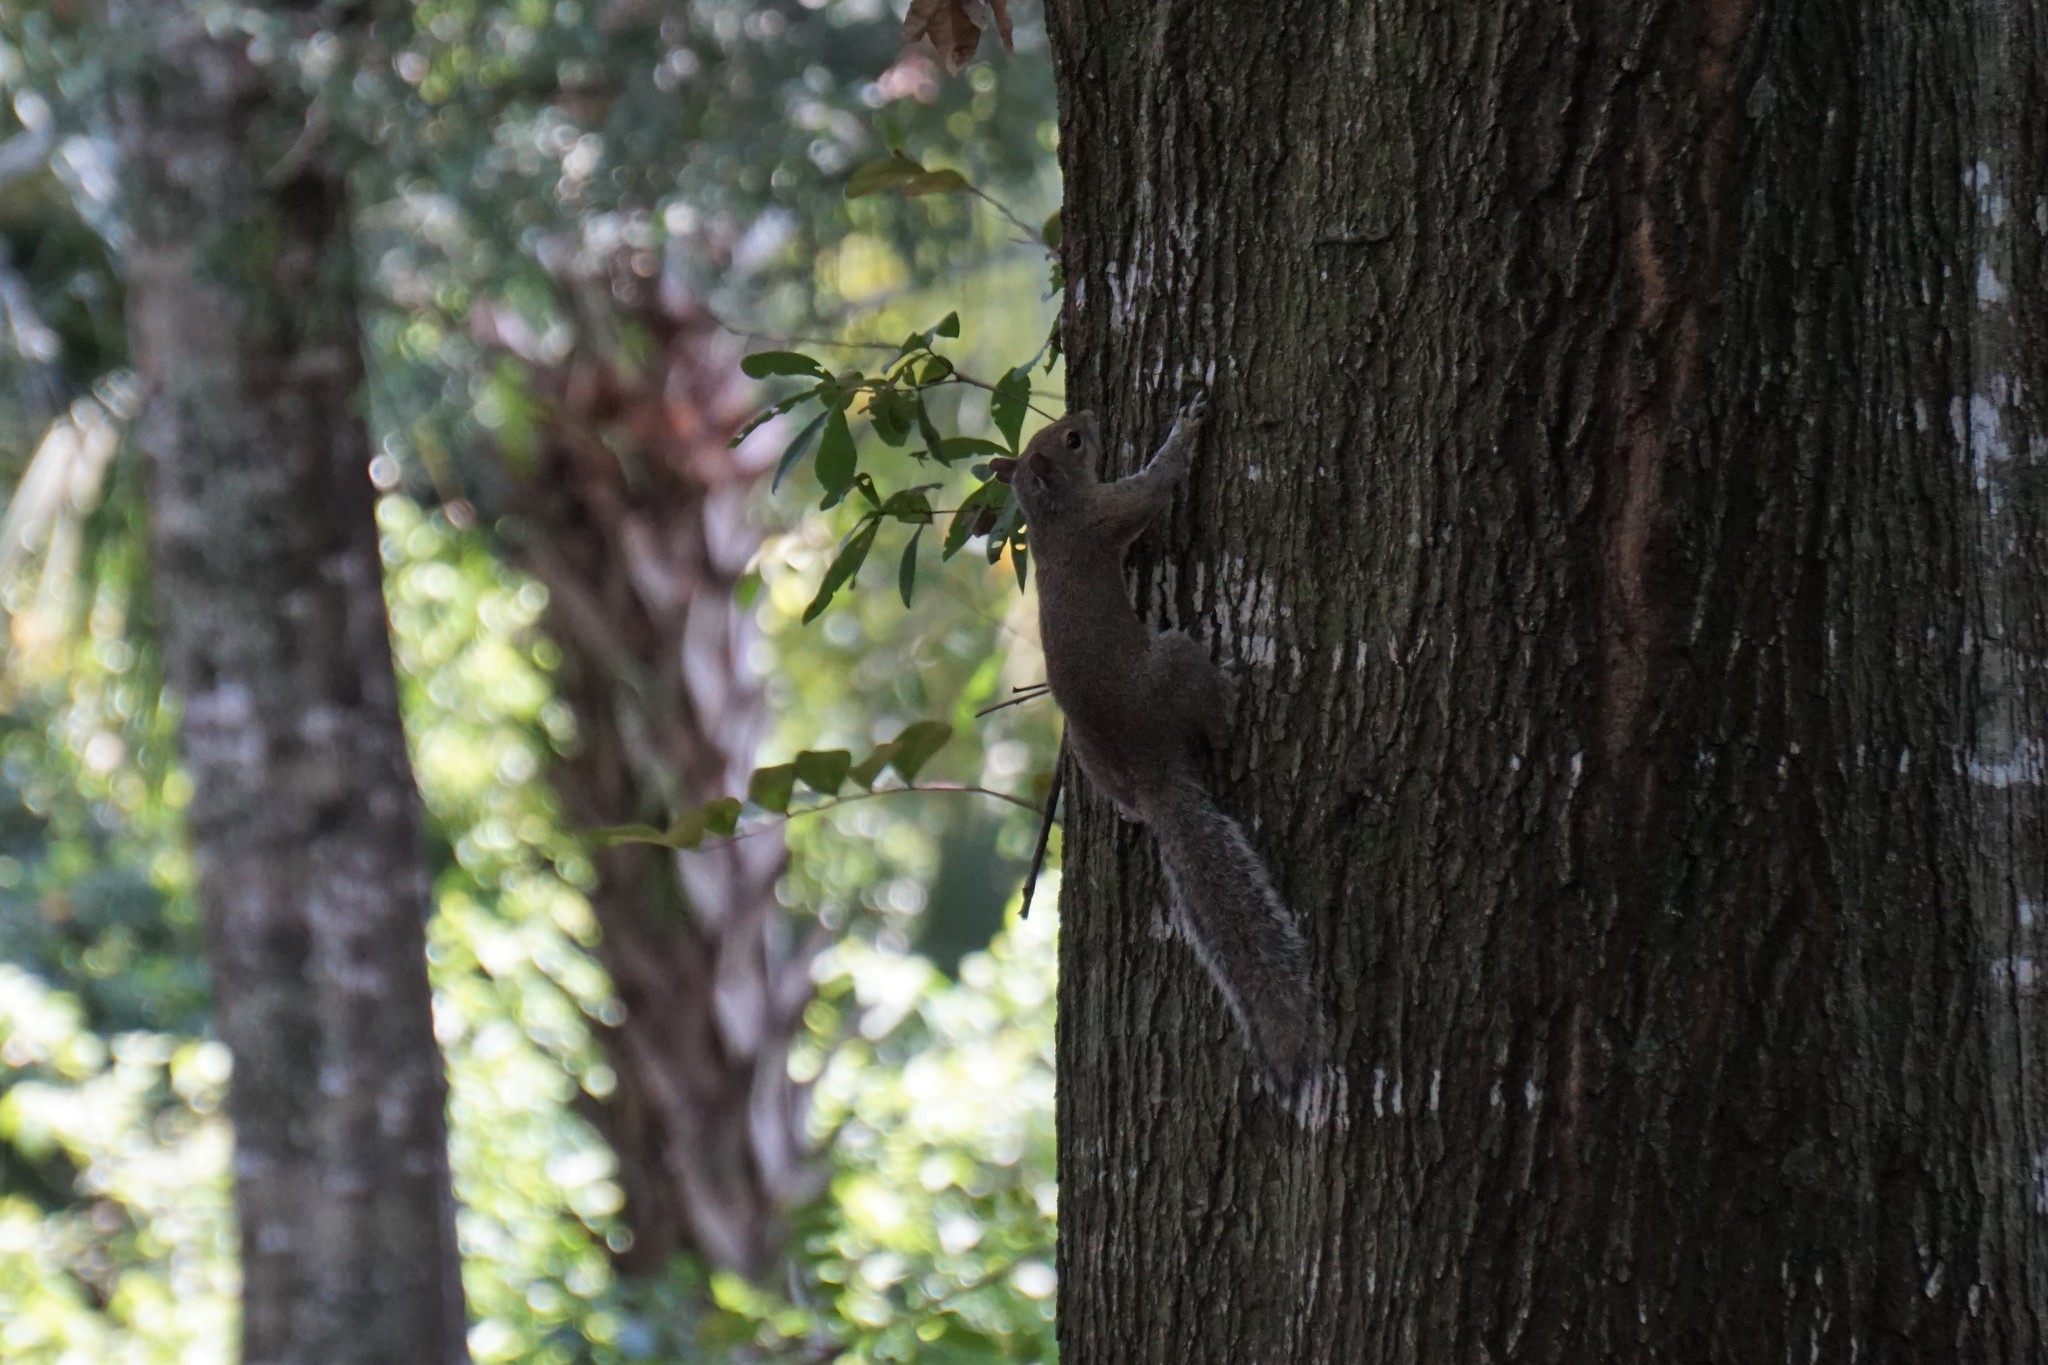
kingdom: Animalia
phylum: Chordata
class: Mammalia
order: Rodentia
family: Sciuridae
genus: Sciurus
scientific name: Sciurus carolinensis
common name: Eastern gray squirrel
